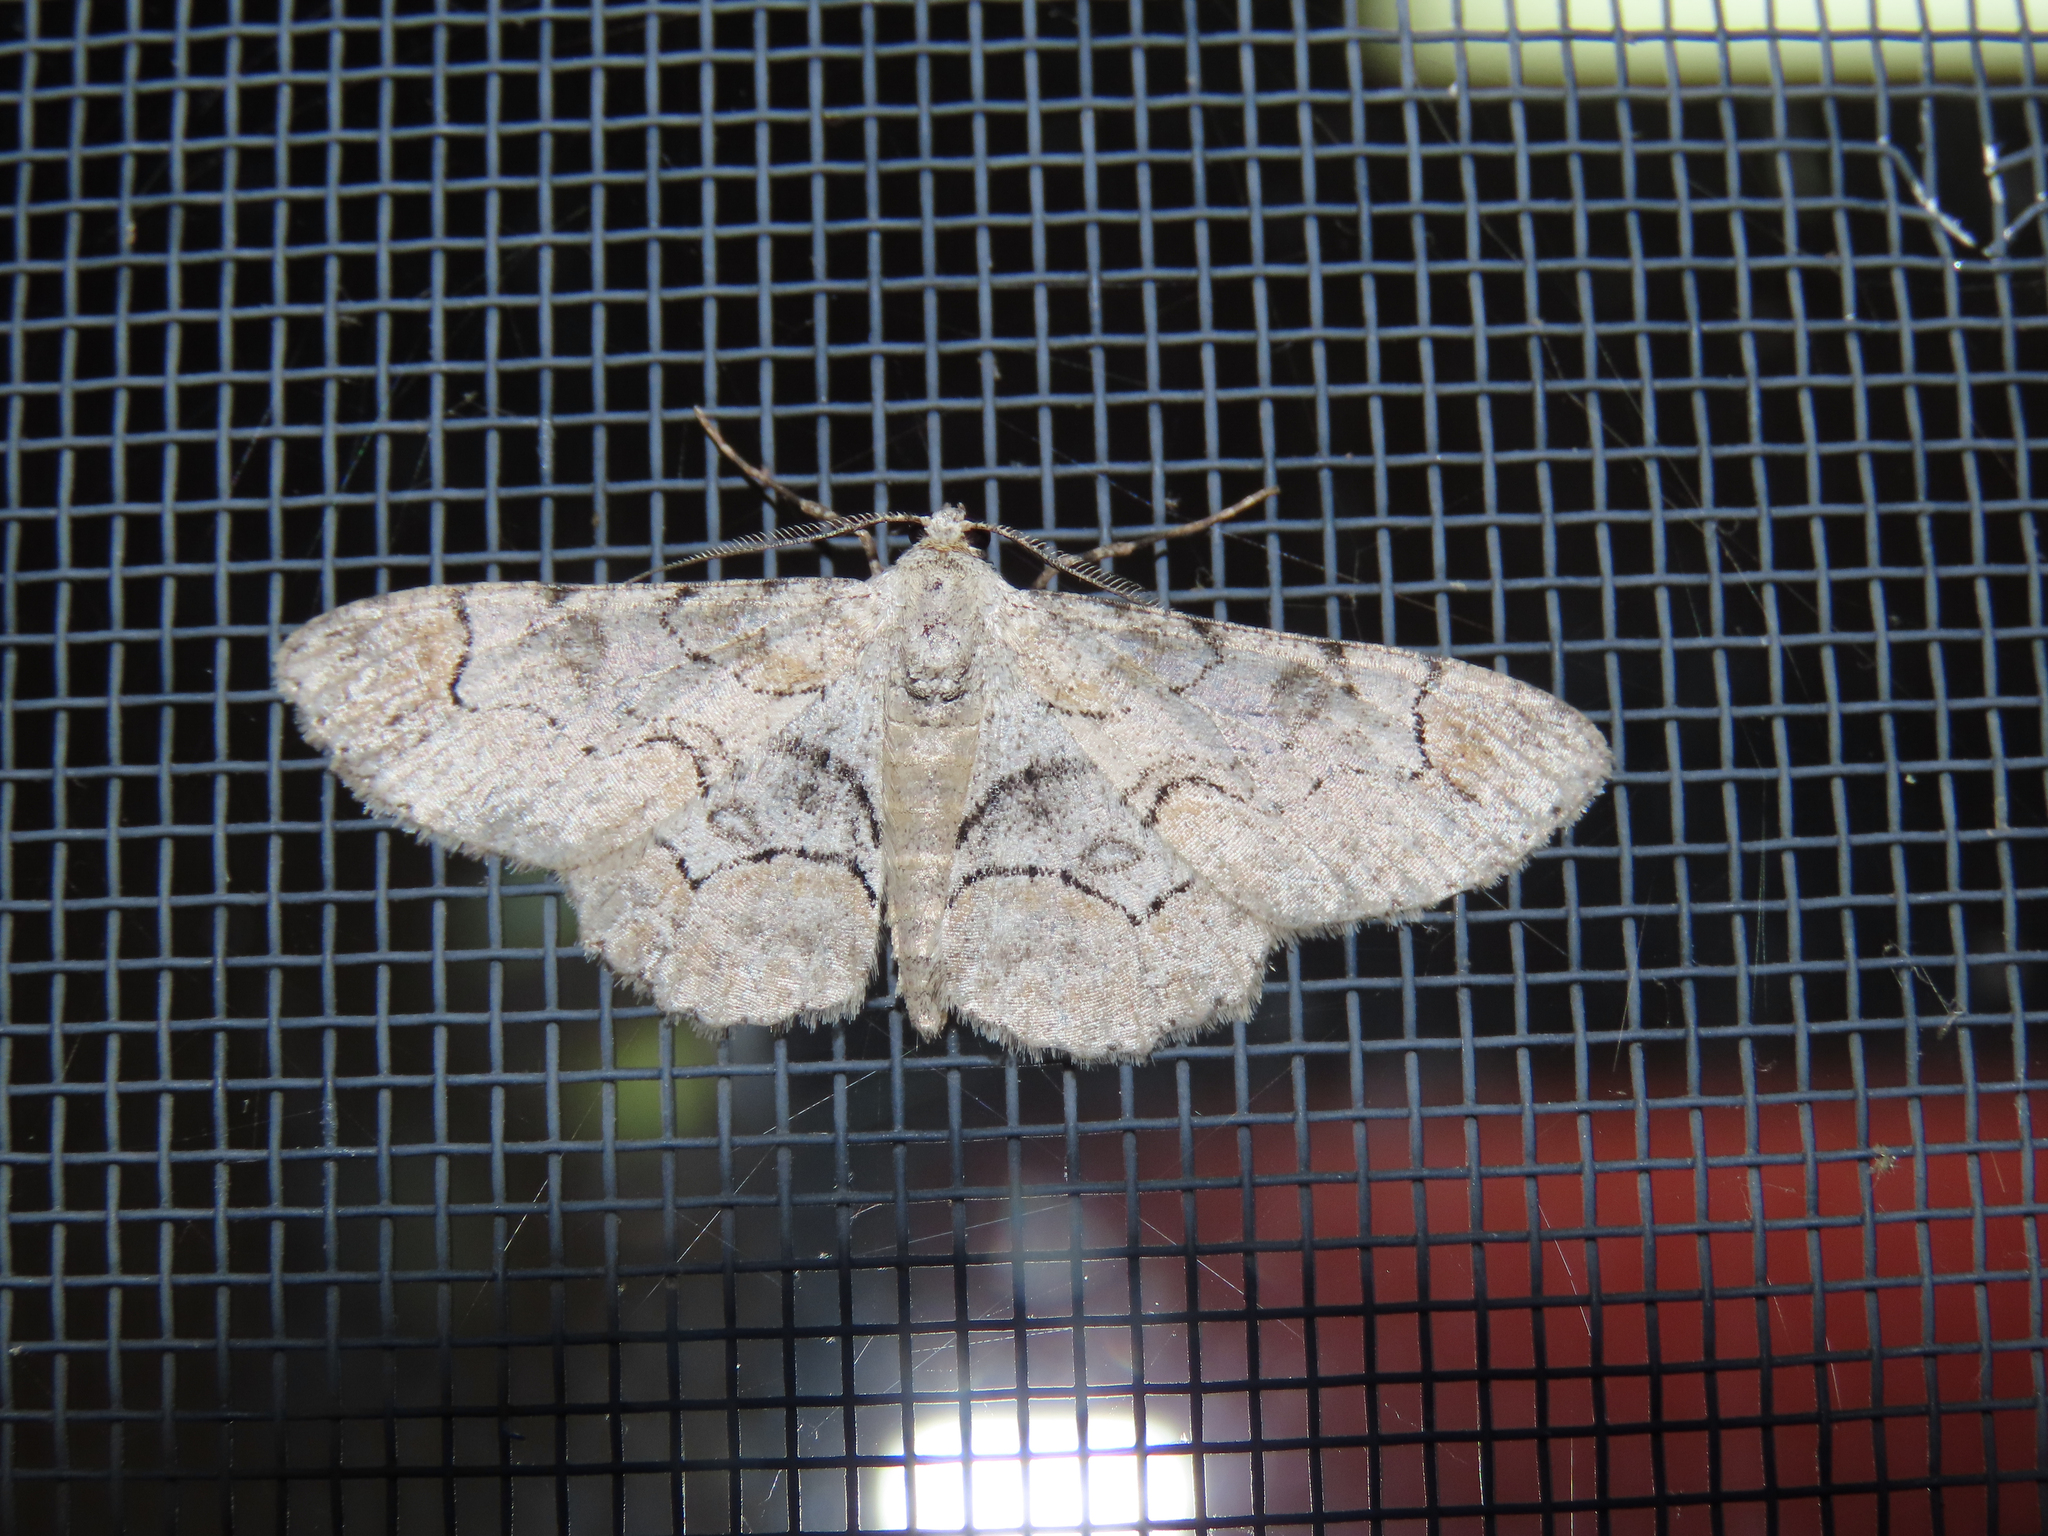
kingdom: Animalia
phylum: Arthropoda
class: Insecta
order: Lepidoptera
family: Geometridae
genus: Iridopsis
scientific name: Iridopsis larvaria
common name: Bent-line gray
